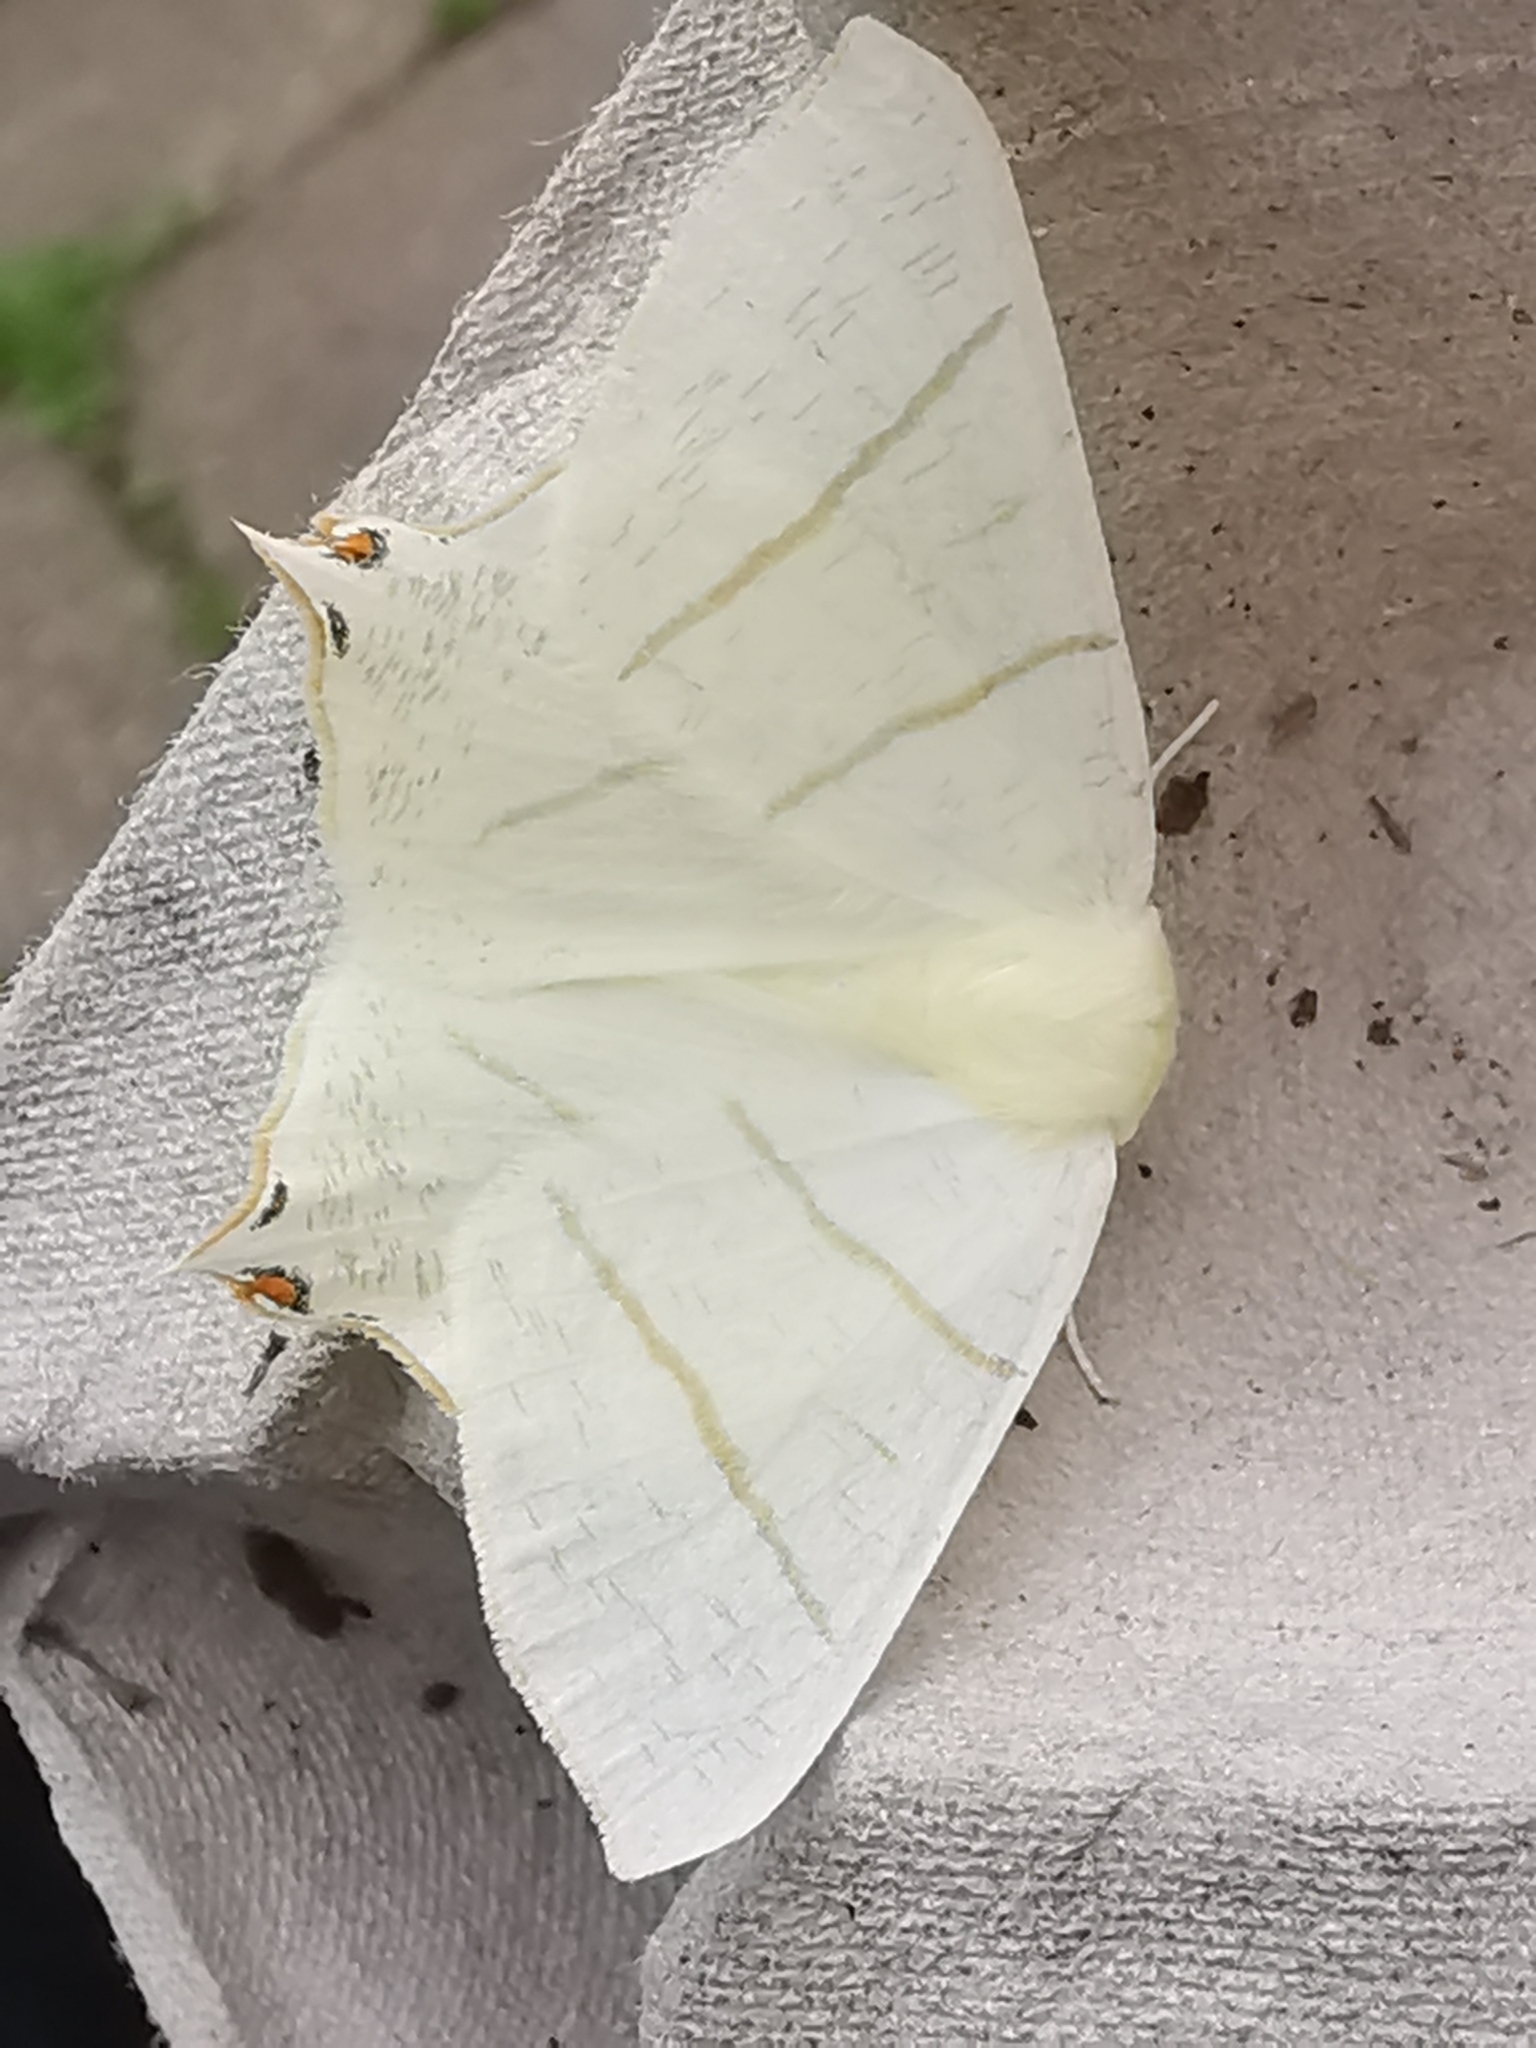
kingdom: Animalia
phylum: Arthropoda
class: Insecta
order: Lepidoptera
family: Geometridae
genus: Ourapteryx
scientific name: Ourapteryx sambucaria
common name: Swallow-tailed moth
